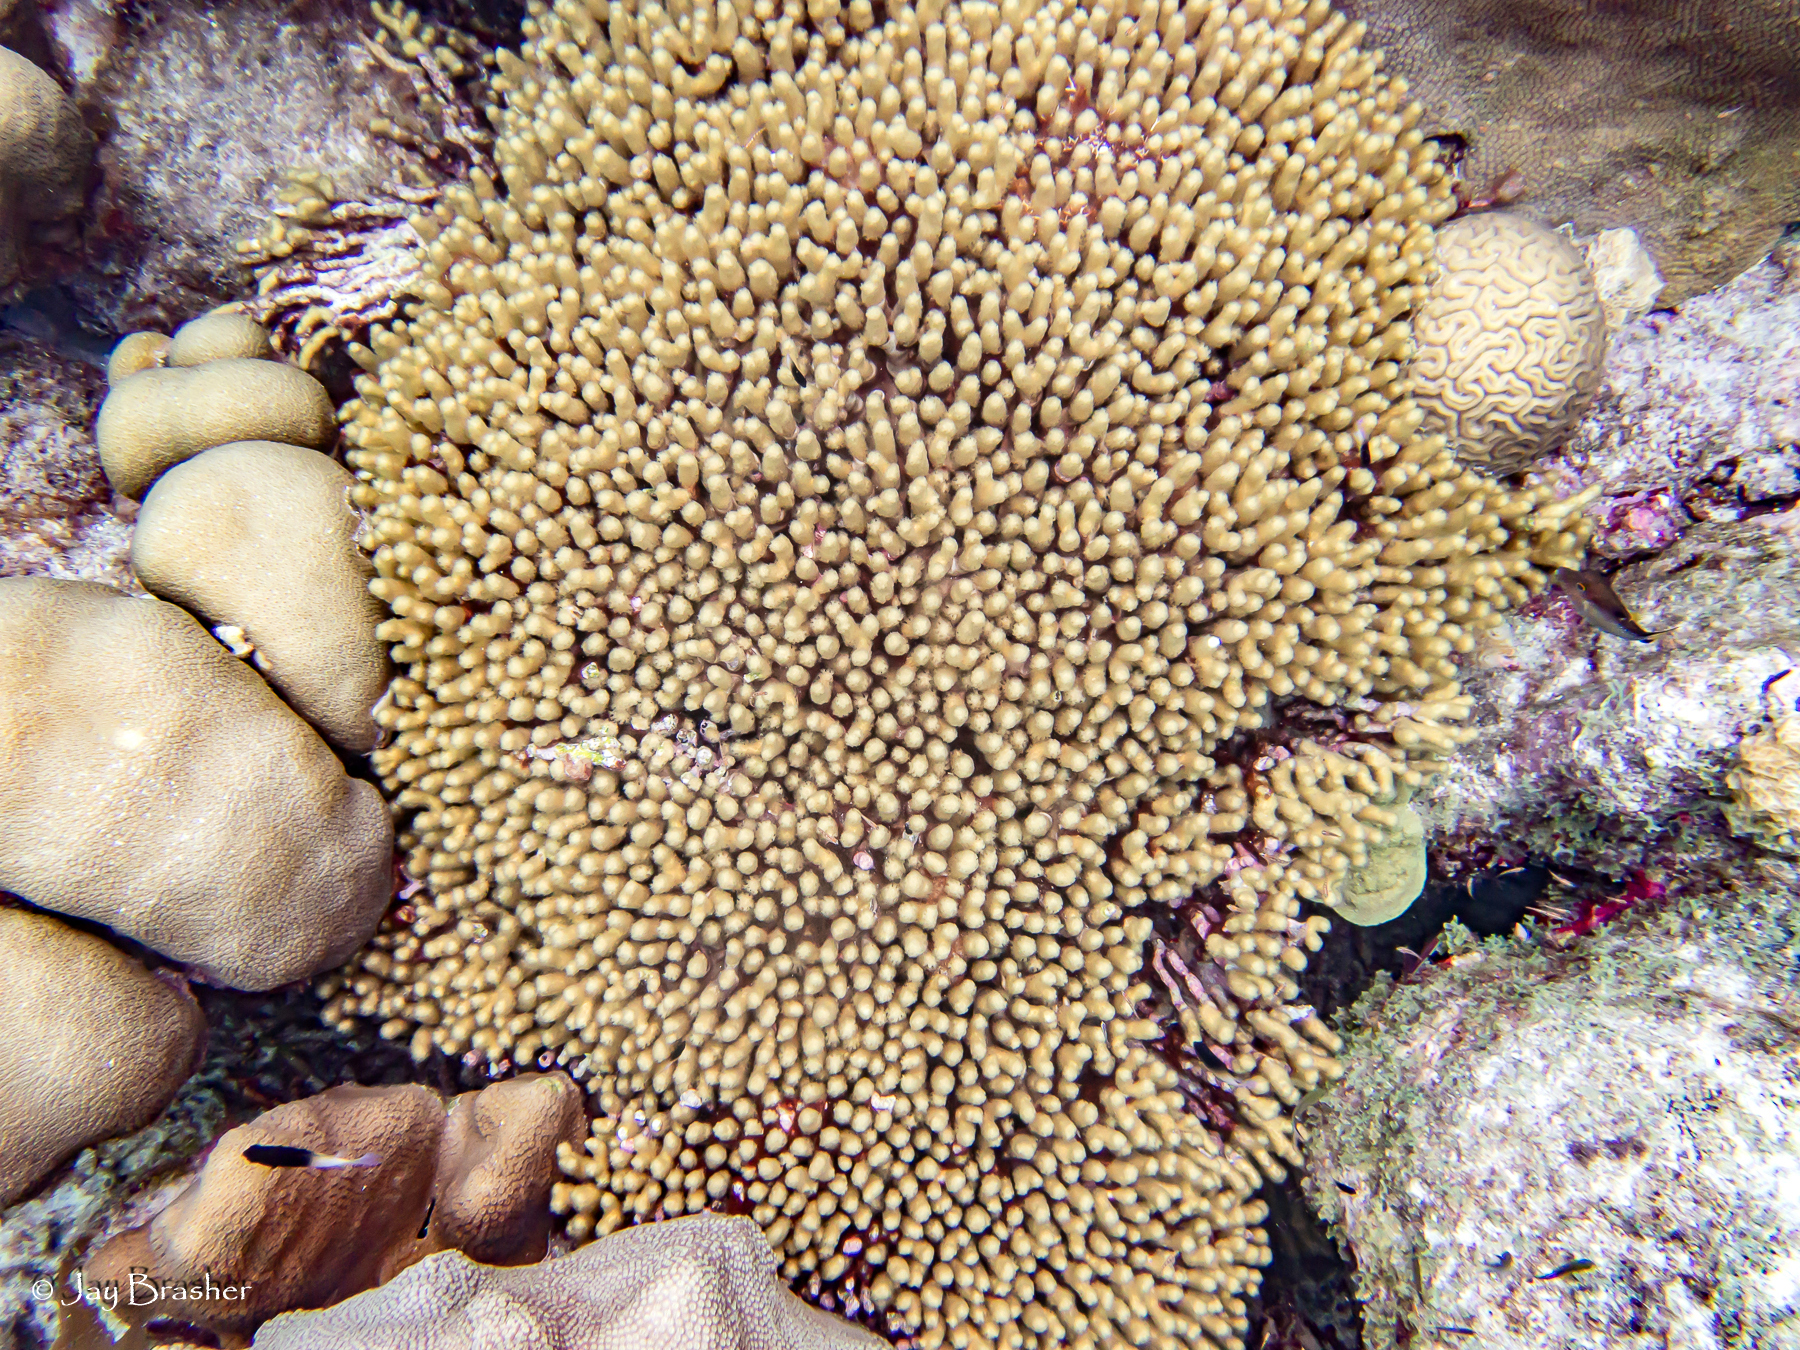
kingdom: Animalia
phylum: Cnidaria
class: Anthozoa
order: Scleractinia
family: Faviidae
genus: Diploria
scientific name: Diploria labyrinthiformis
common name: Grooved brain coral
